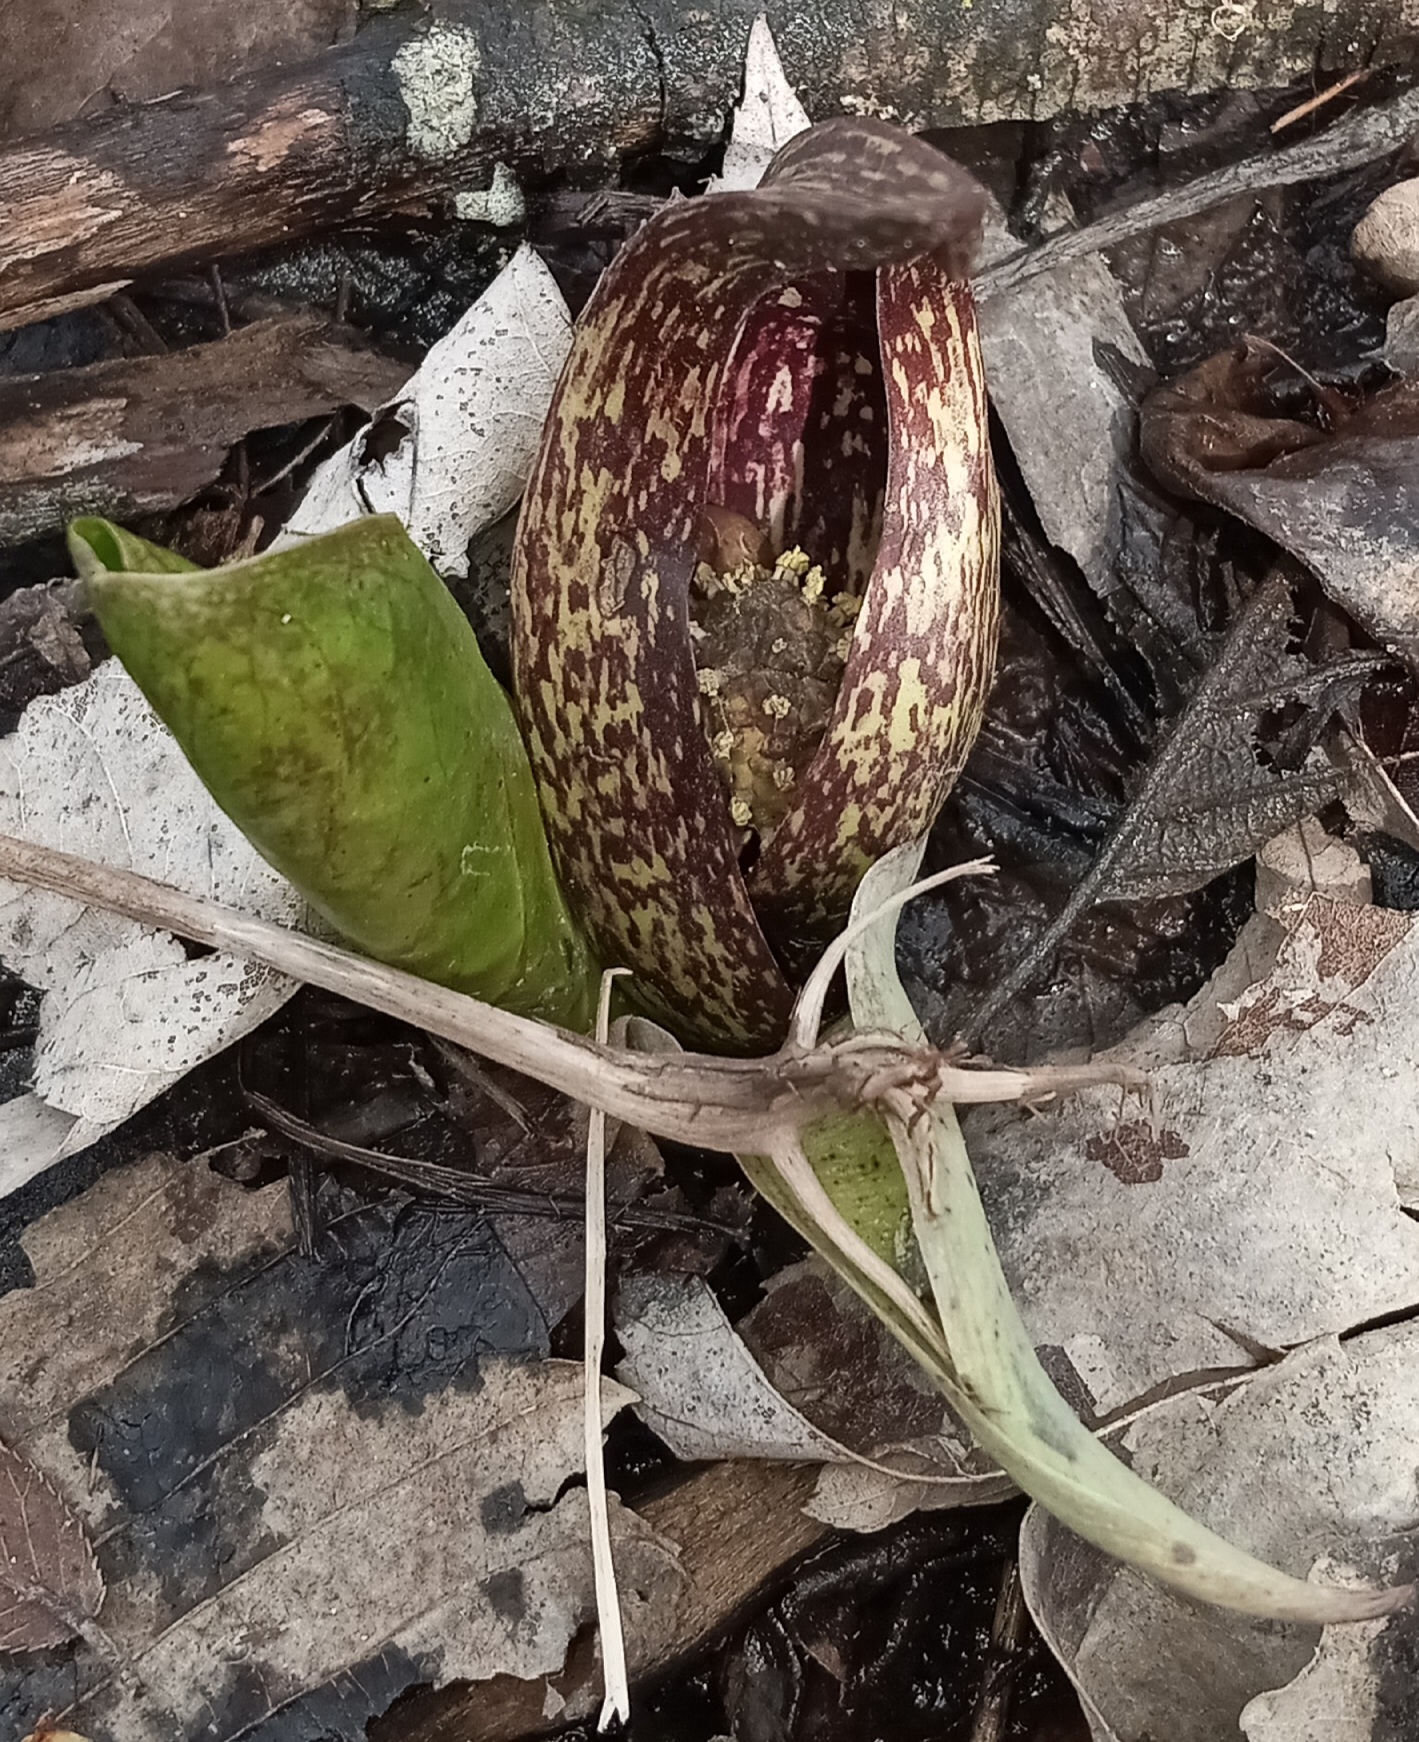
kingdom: Plantae
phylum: Tracheophyta
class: Liliopsida
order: Alismatales
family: Araceae
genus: Symplocarpus
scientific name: Symplocarpus foetidus
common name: Eastern skunk cabbage
